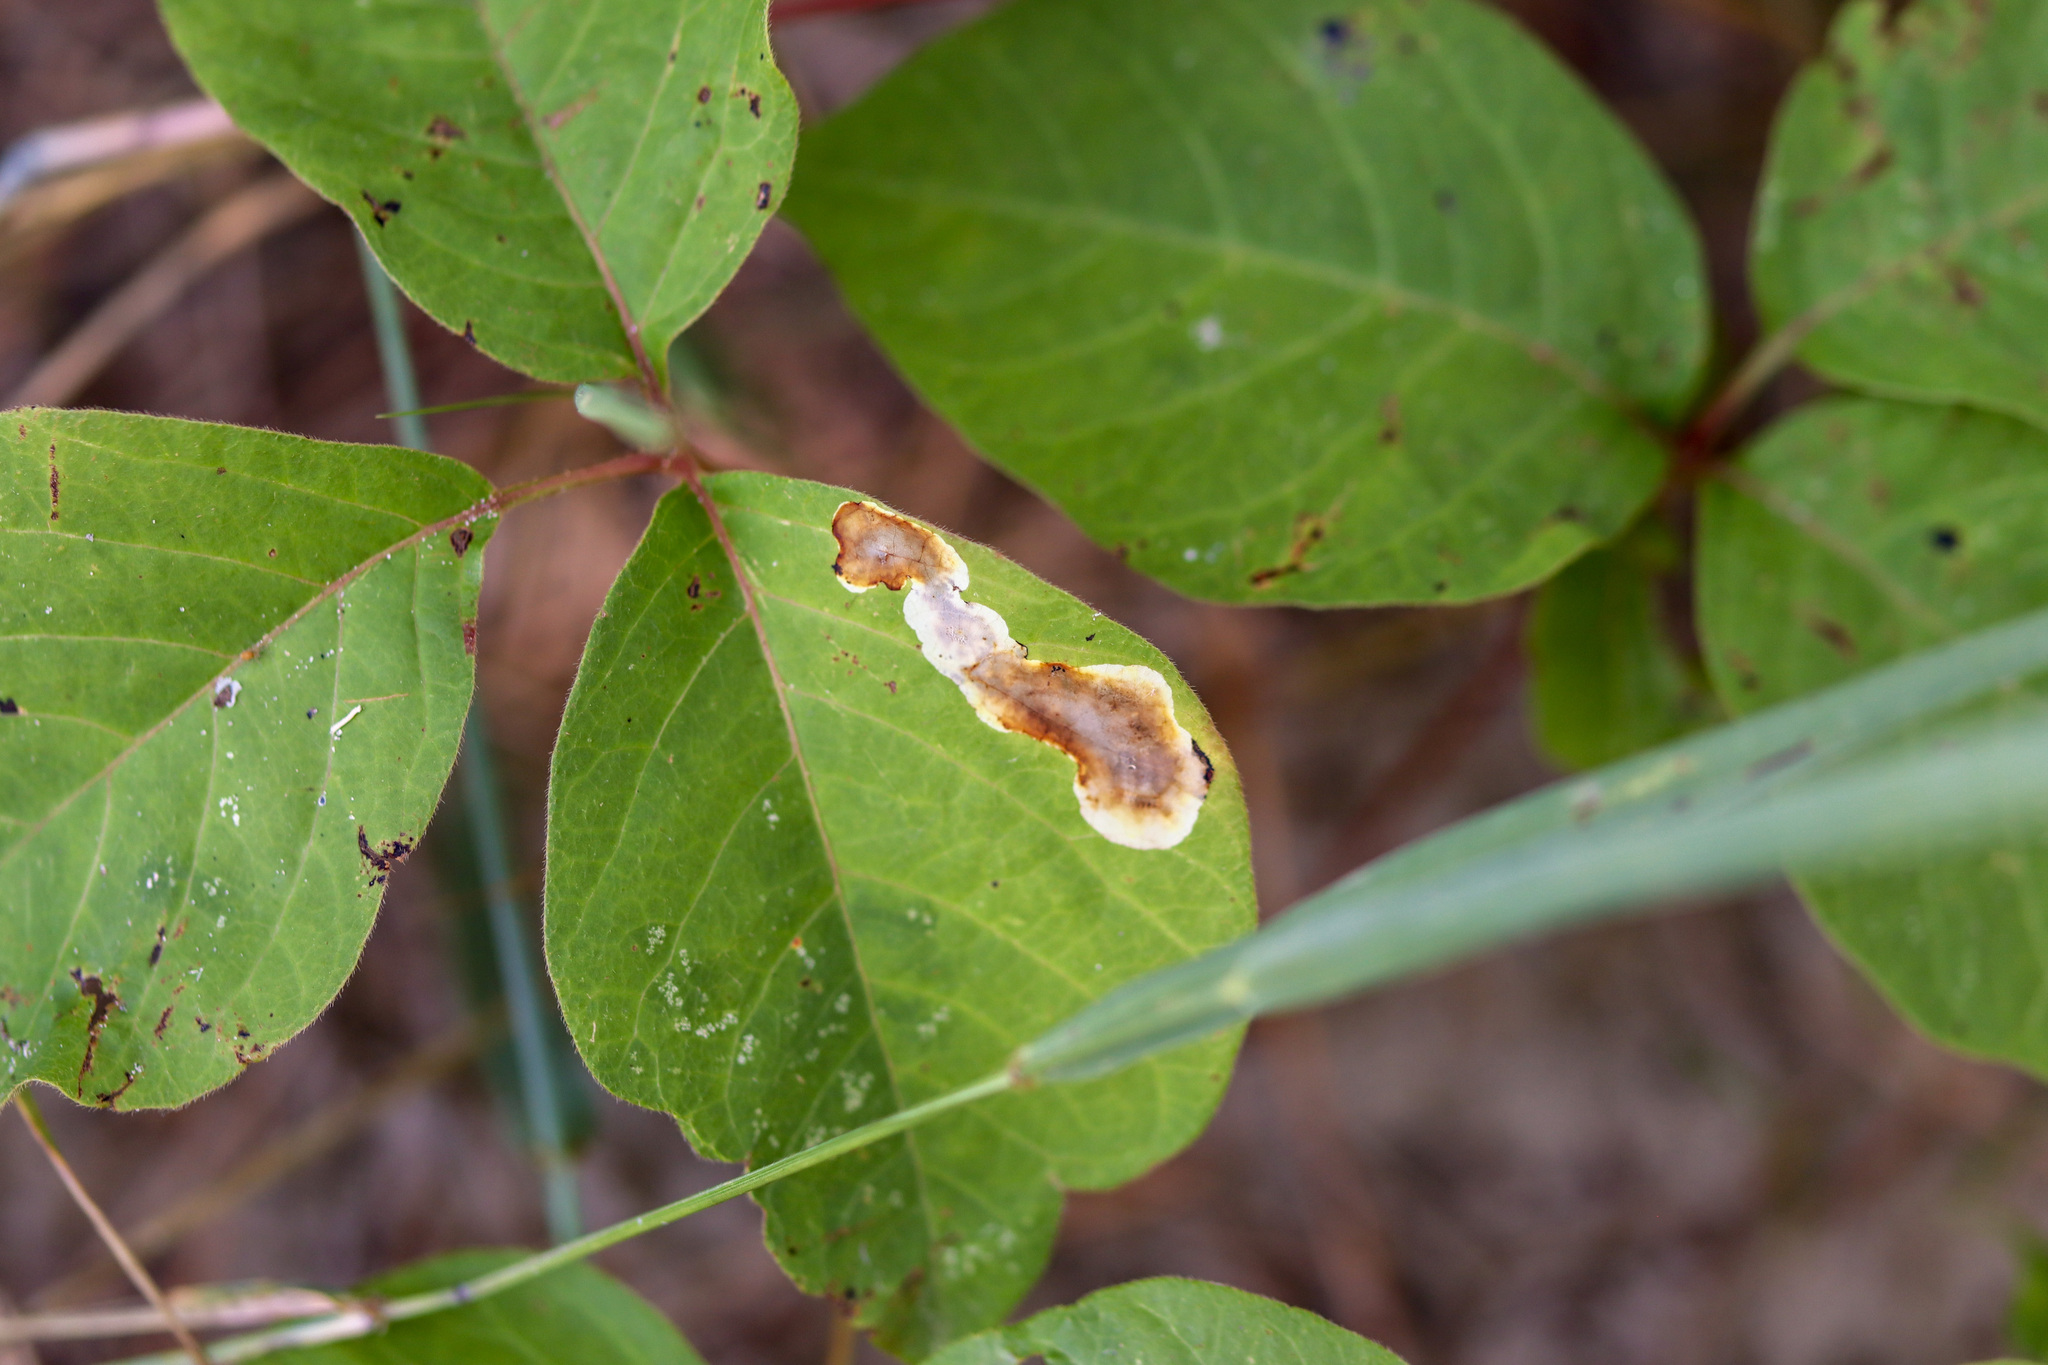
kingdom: Animalia
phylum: Arthropoda
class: Insecta
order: Lepidoptera
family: Gracillariidae
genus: Cameraria
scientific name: Cameraria guttifinitella
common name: Poison ivy leaf-miner moth
